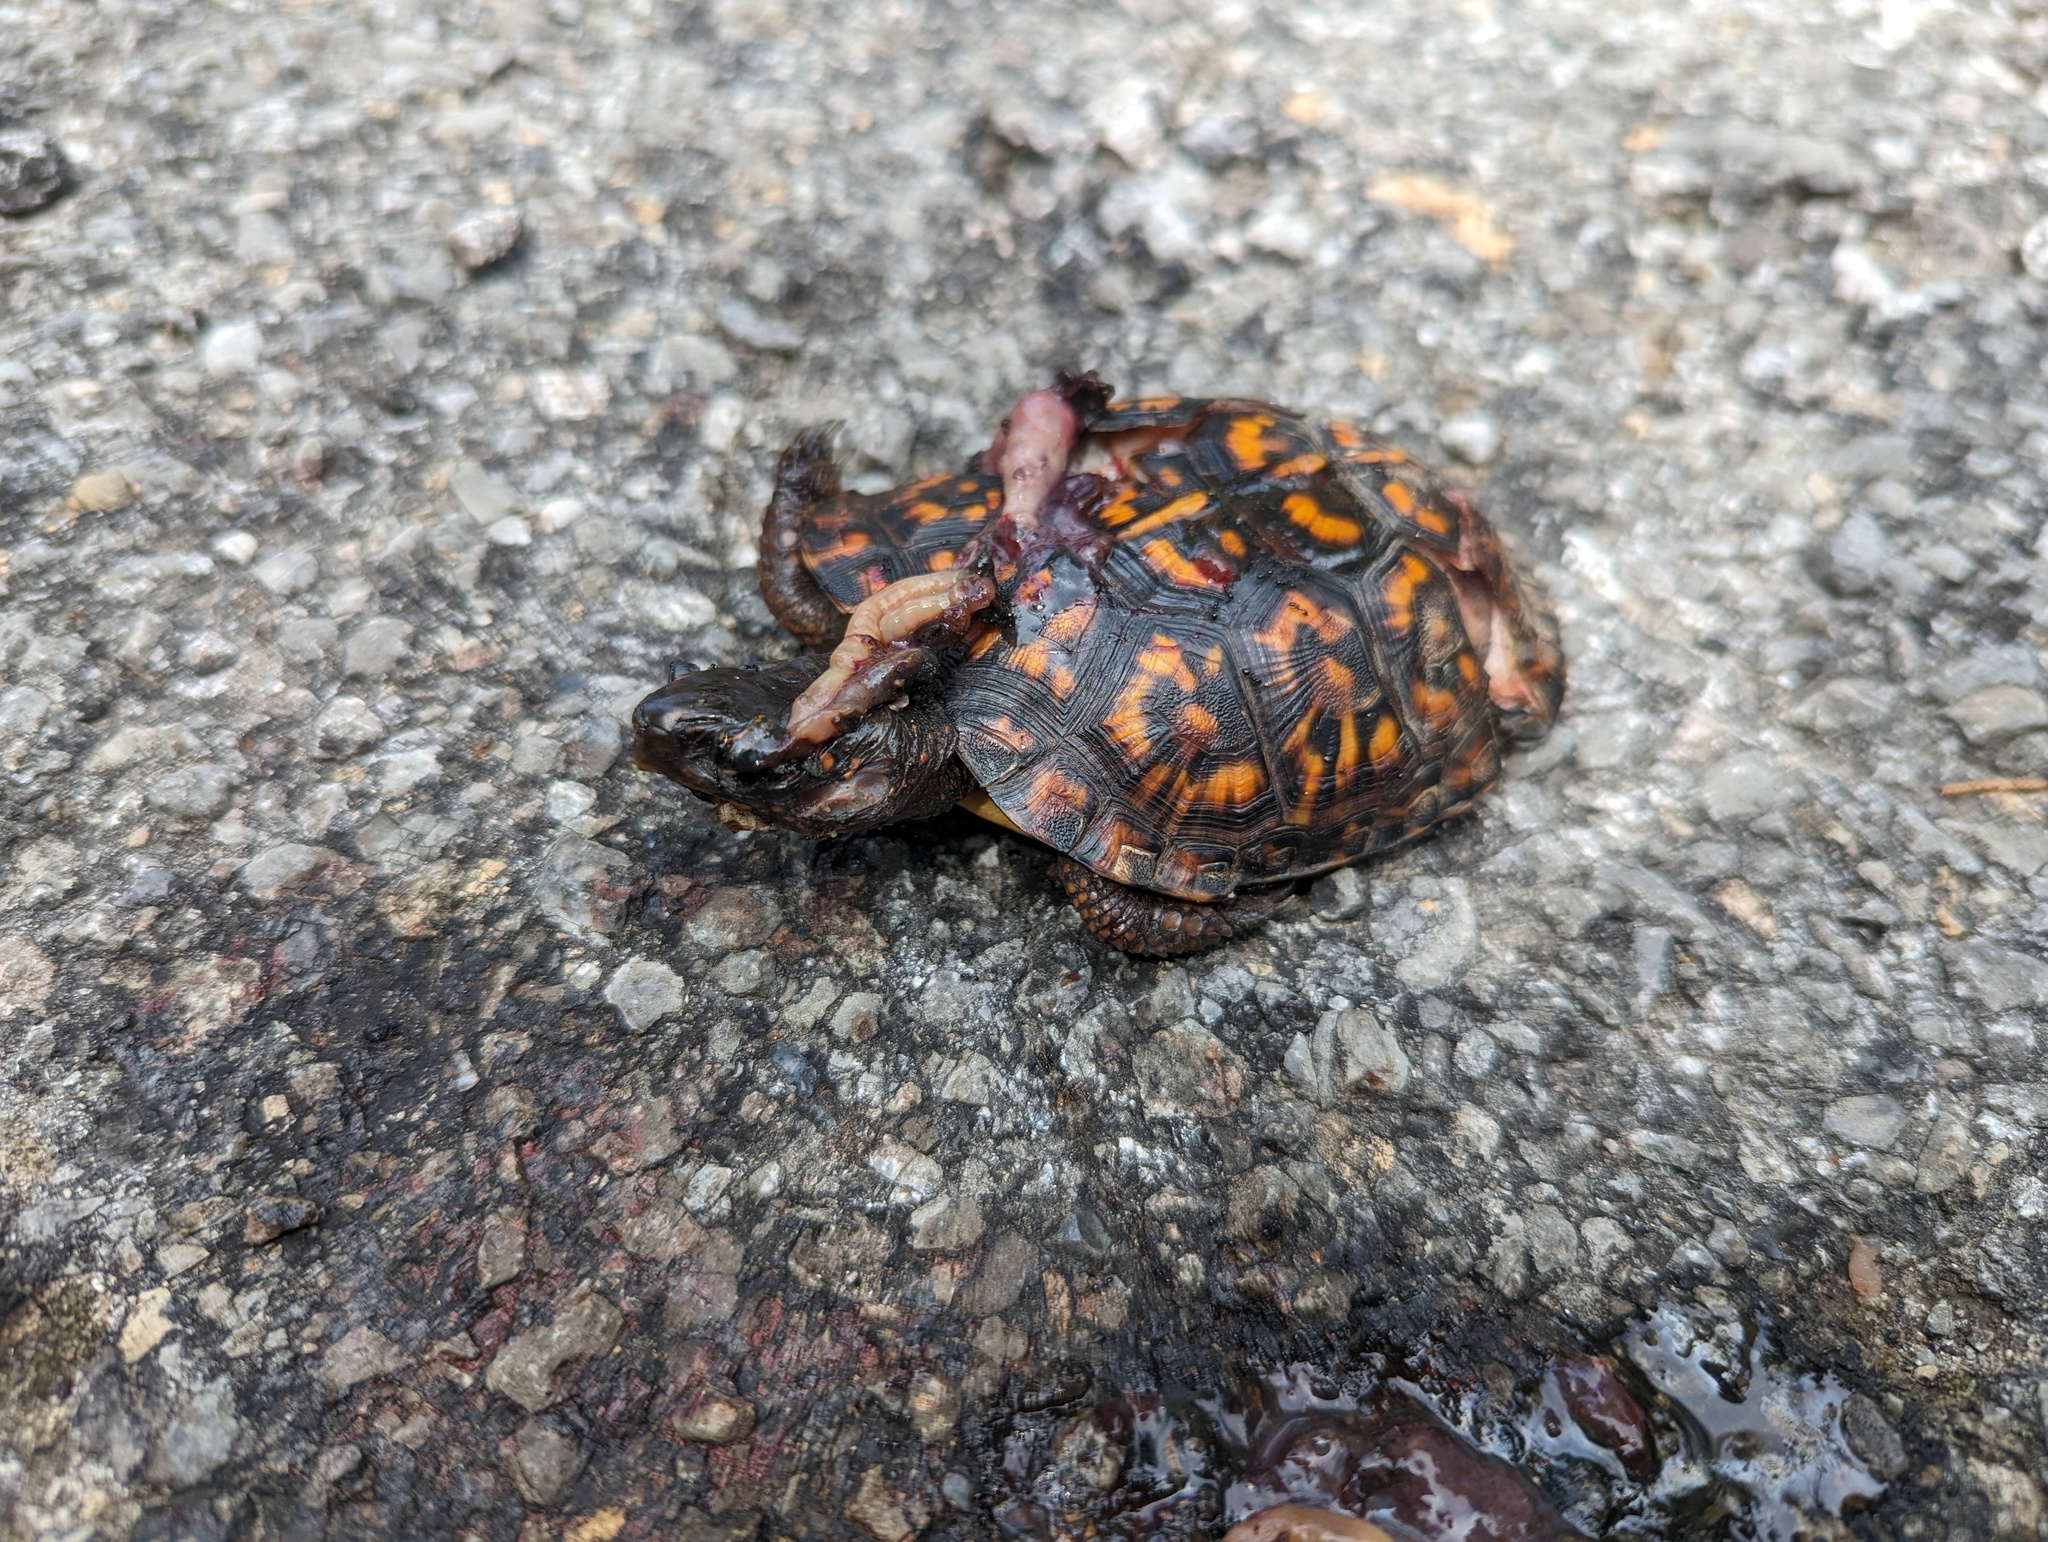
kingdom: Animalia
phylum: Chordata
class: Testudines
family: Emydidae
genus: Terrapene
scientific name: Terrapene carolina
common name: Common box turtle
